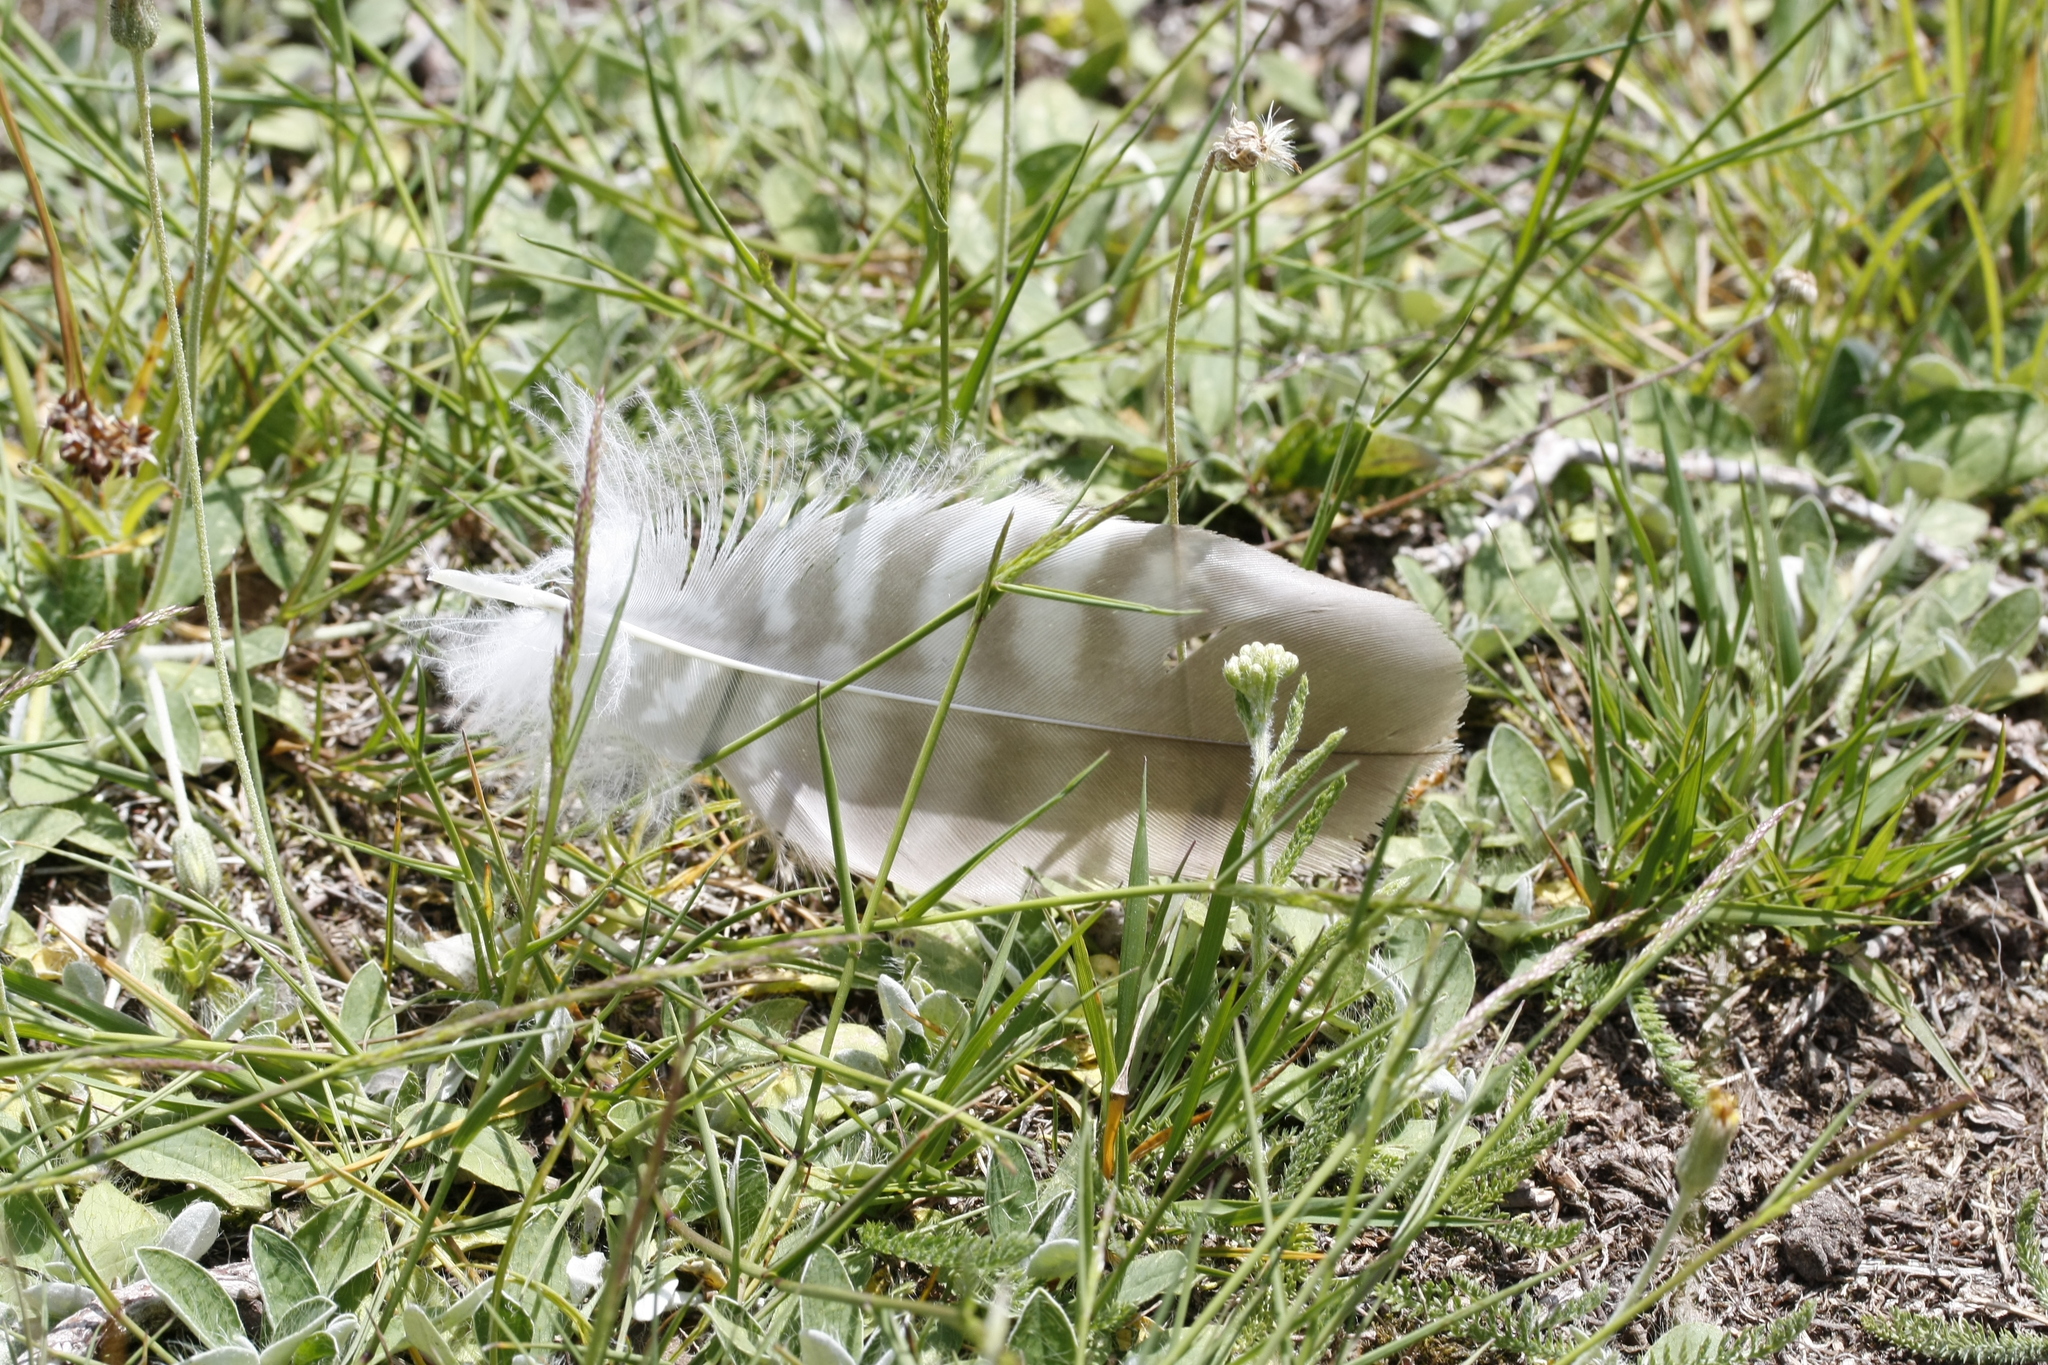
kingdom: Animalia
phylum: Chordata
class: Aves
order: Accipitriformes
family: Accipitridae
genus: Buteo
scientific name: Buteo buteo
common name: Common buzzard
